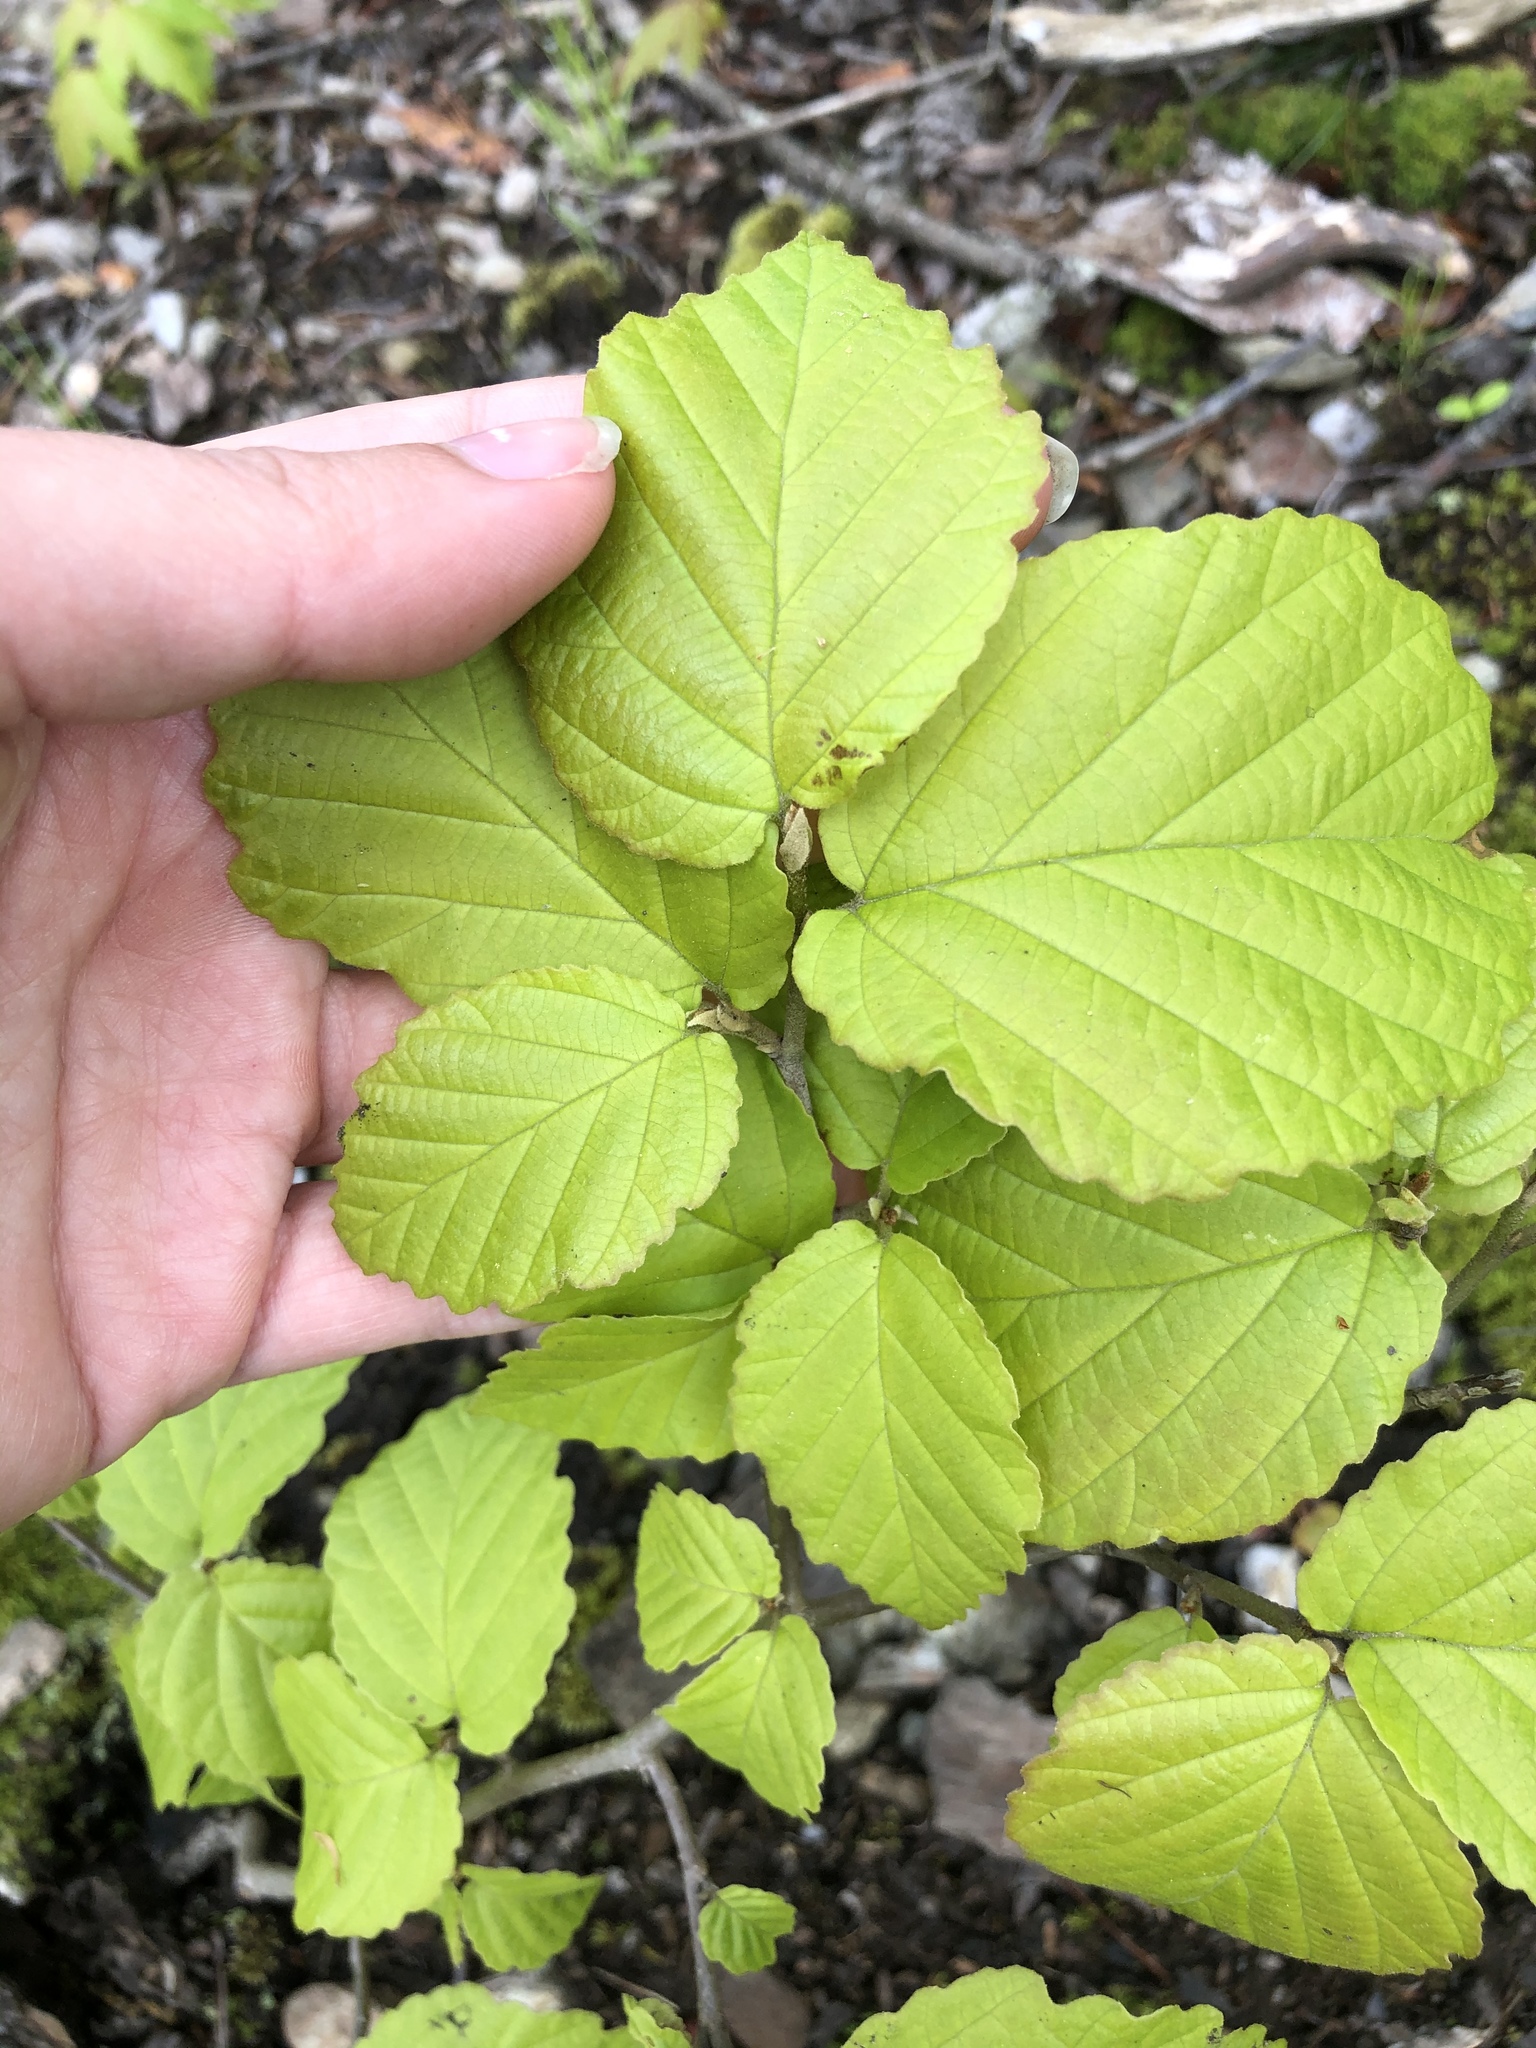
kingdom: Plantae
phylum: Tracheophyta
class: Magnoliopsida
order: Saxifragales
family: Hamamelidaceae
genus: Hamamelis
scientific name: Hamamelis virginiana
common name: Witch-hazel
